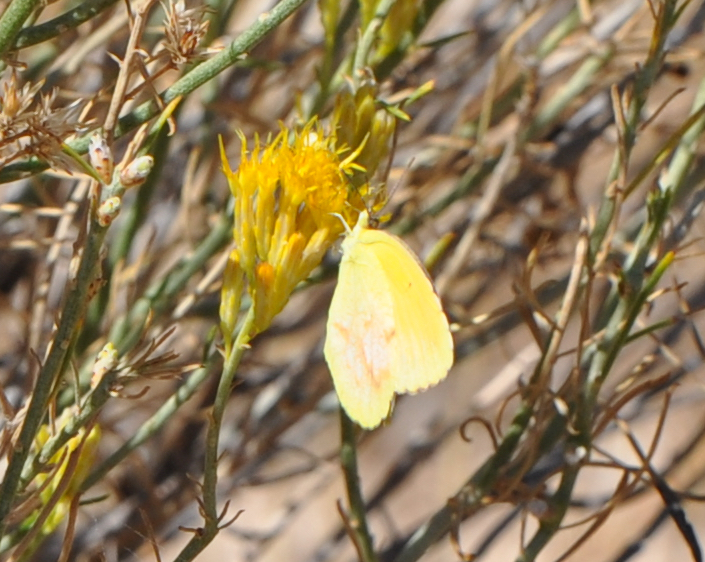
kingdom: Animalia
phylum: Arthropoda
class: Insecta
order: Lepidoptera
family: Pieridae
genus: Abaeis
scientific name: Abaeis nicippe
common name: Sleepy orange
